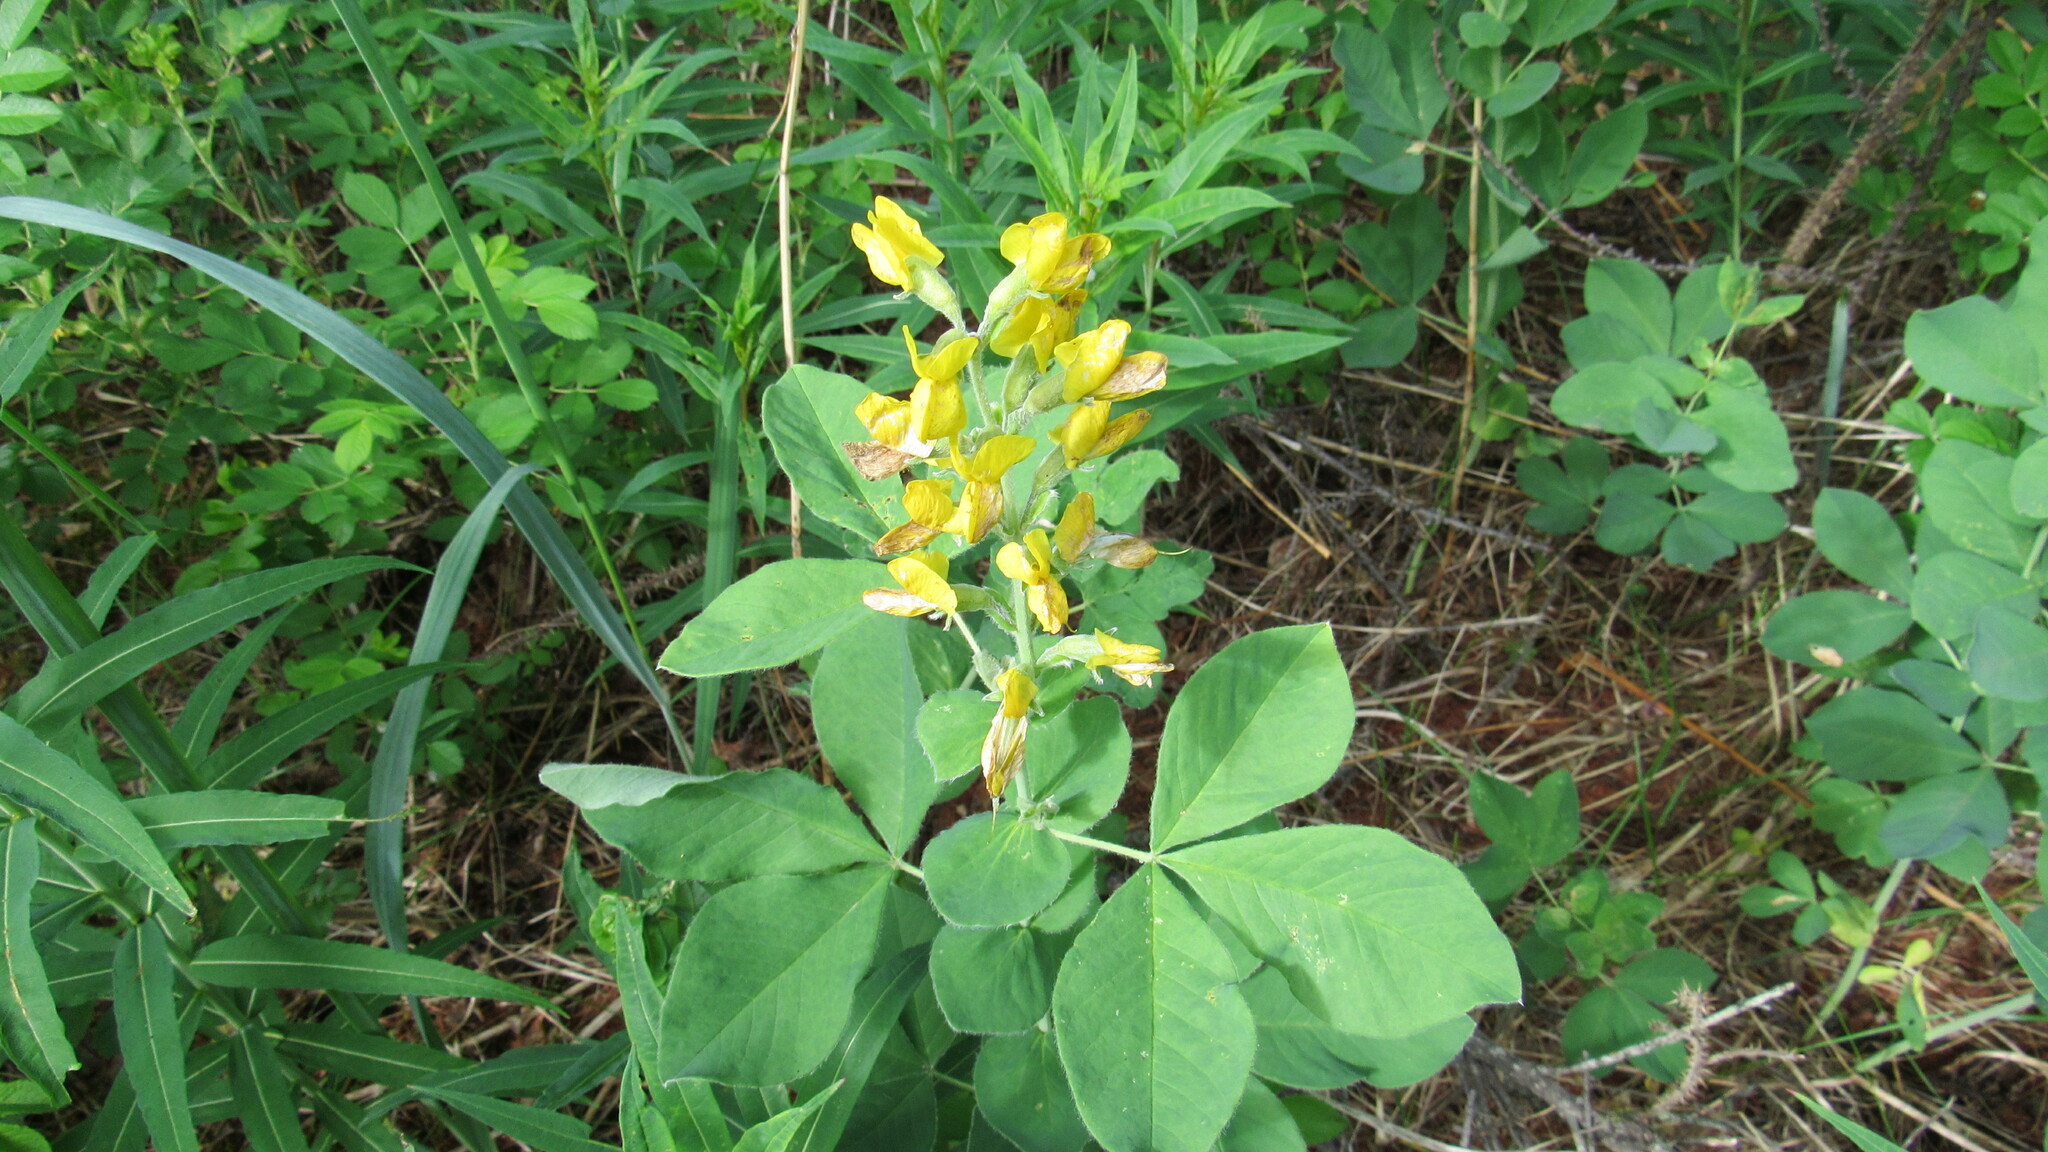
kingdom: Plantae
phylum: Tracheophyta
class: Magnoliopsida
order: Fabales
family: Fabaceae
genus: Thermopsis
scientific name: Thermopsis lanceolata
